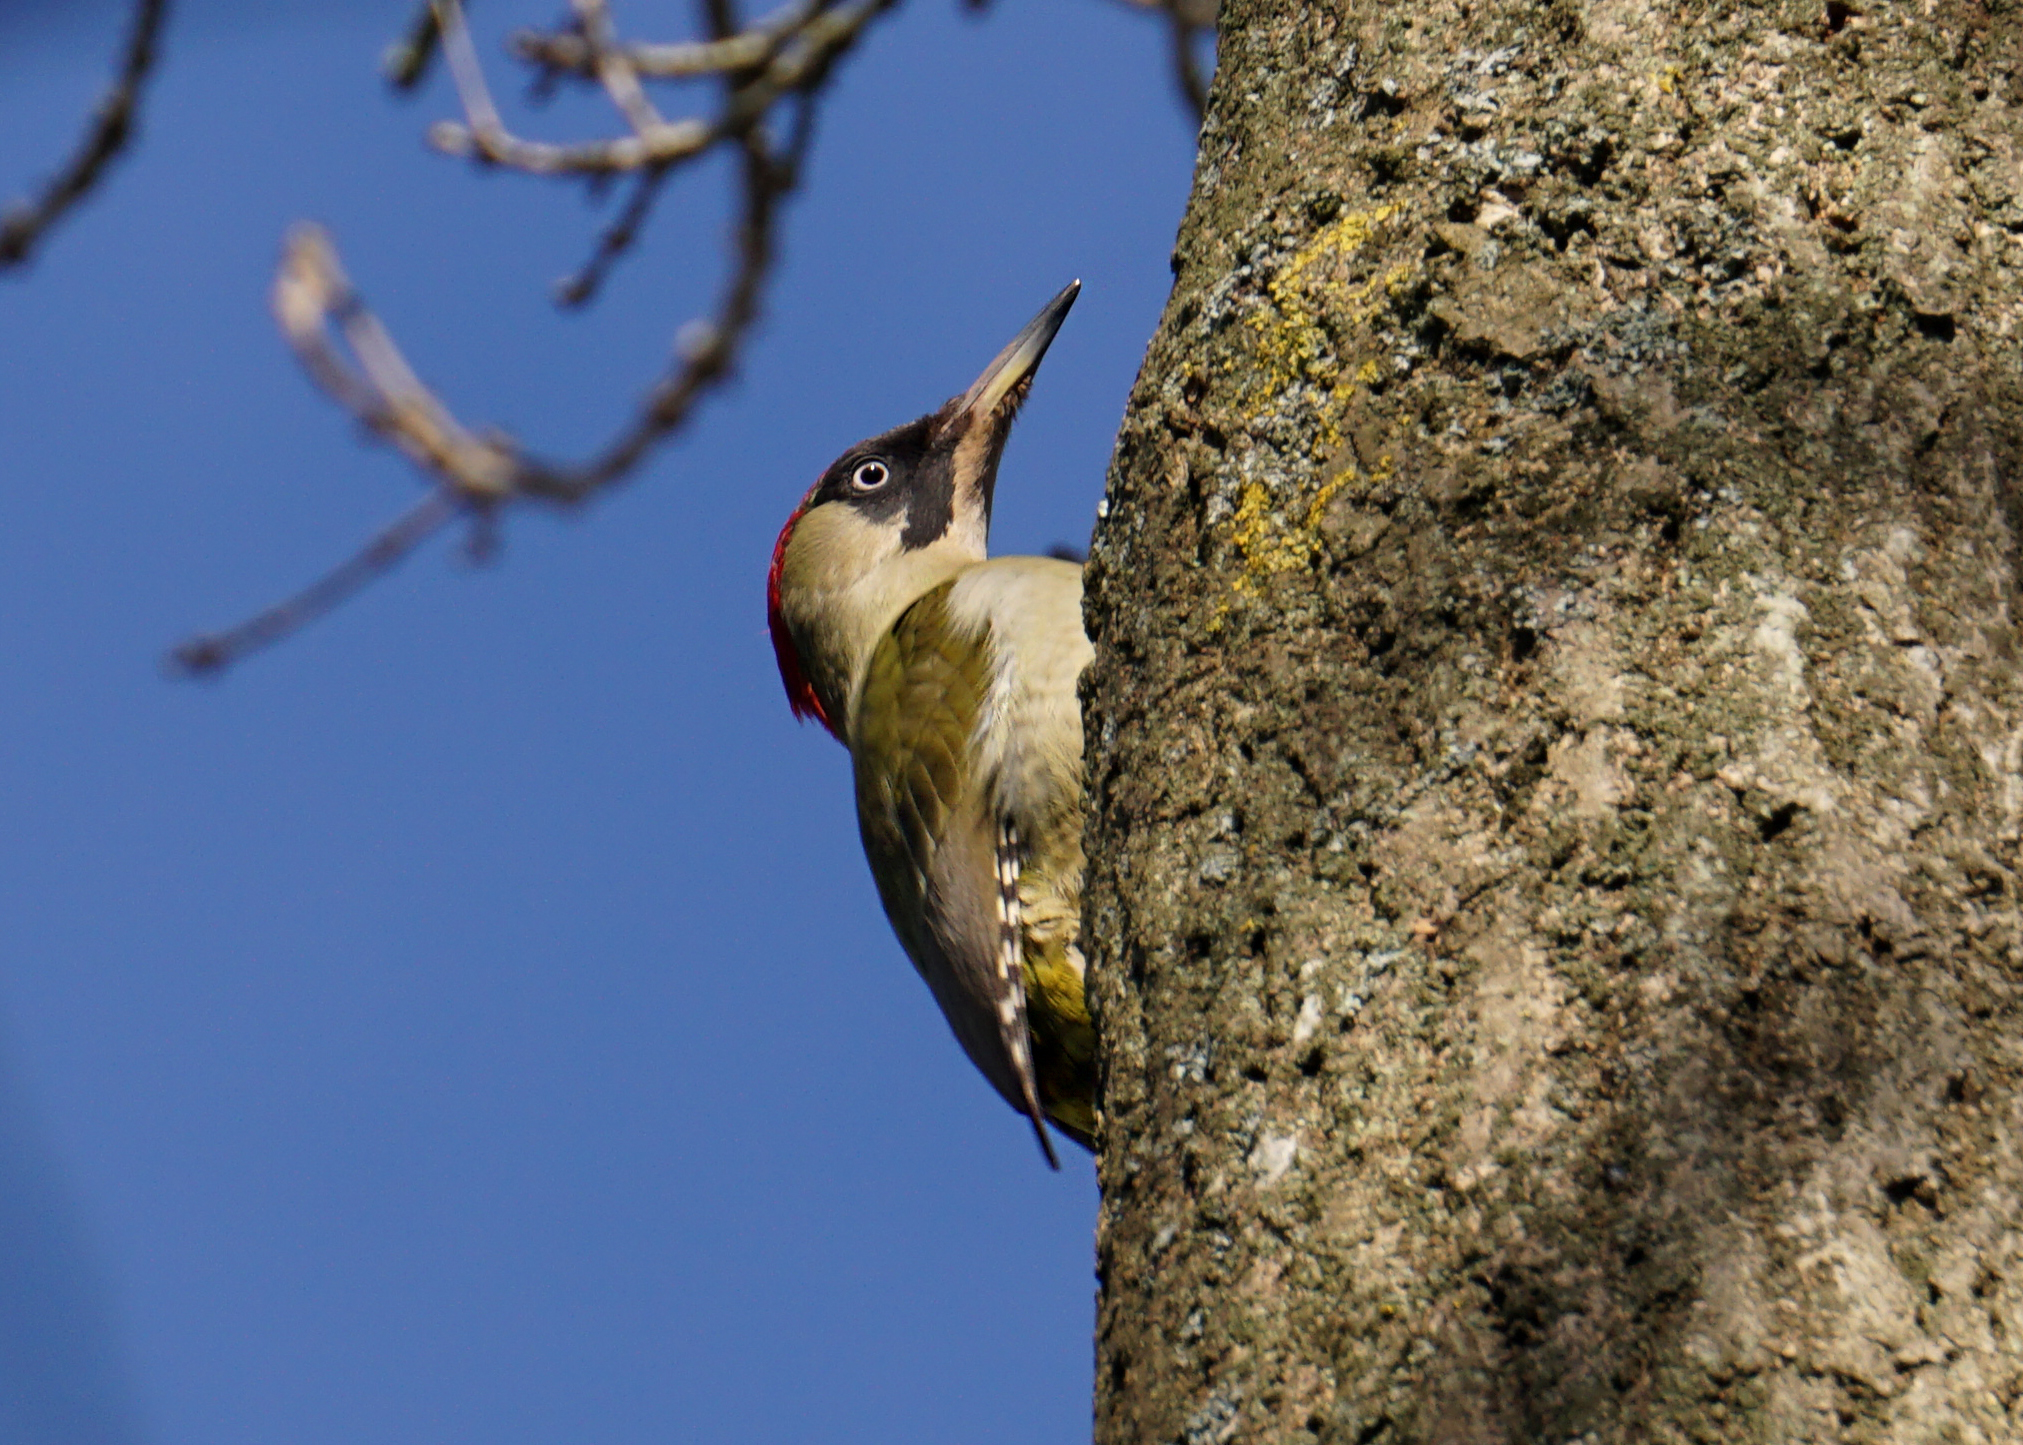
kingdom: Animalia
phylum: Chordata
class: Aves
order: Piciformes
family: Picidae
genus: Picus
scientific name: Picus viridis
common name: European green woodpecker
